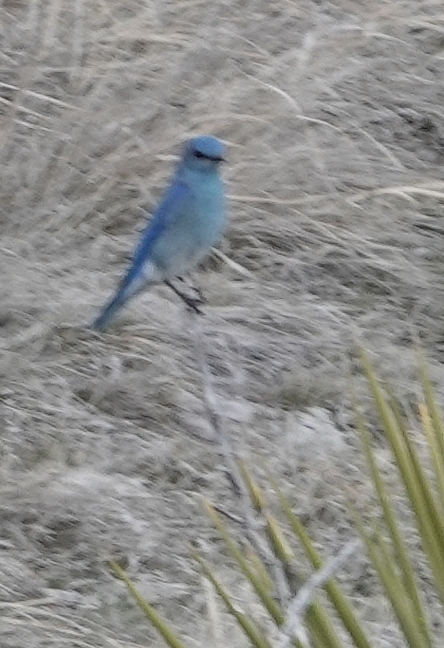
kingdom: Animalia
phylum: Chordata
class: Aves
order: Passeriformes
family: Turdidae
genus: Sialia
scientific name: Sialia currucoides
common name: Mountain bluebird
